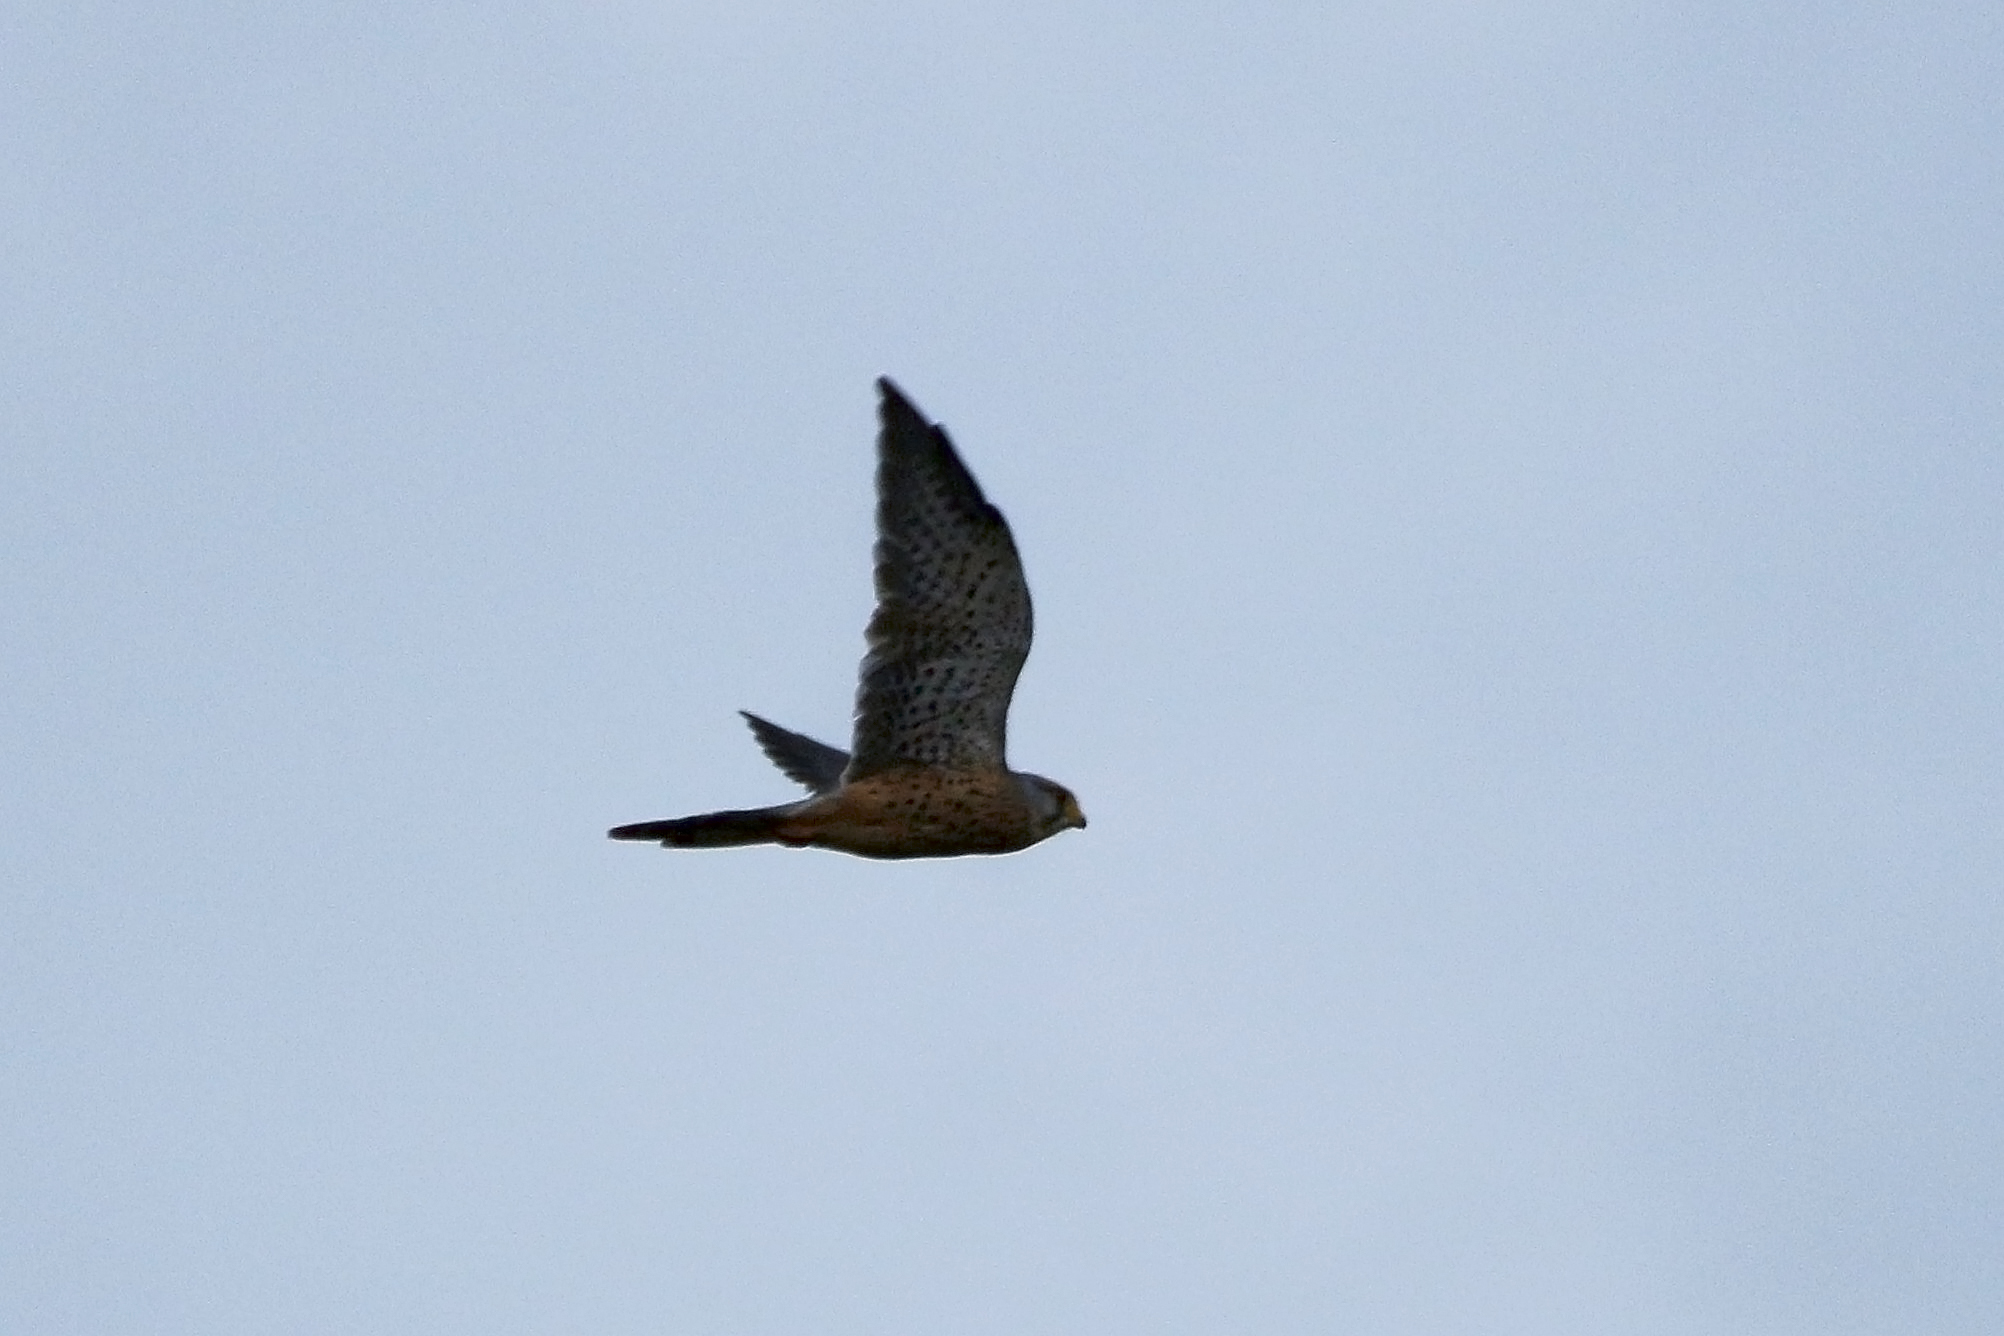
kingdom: Animalia
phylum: Chordata
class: Aves
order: Falconiformes
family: Falconidae
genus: Falco
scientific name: Falco tinnunculus
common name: Common kestrel
